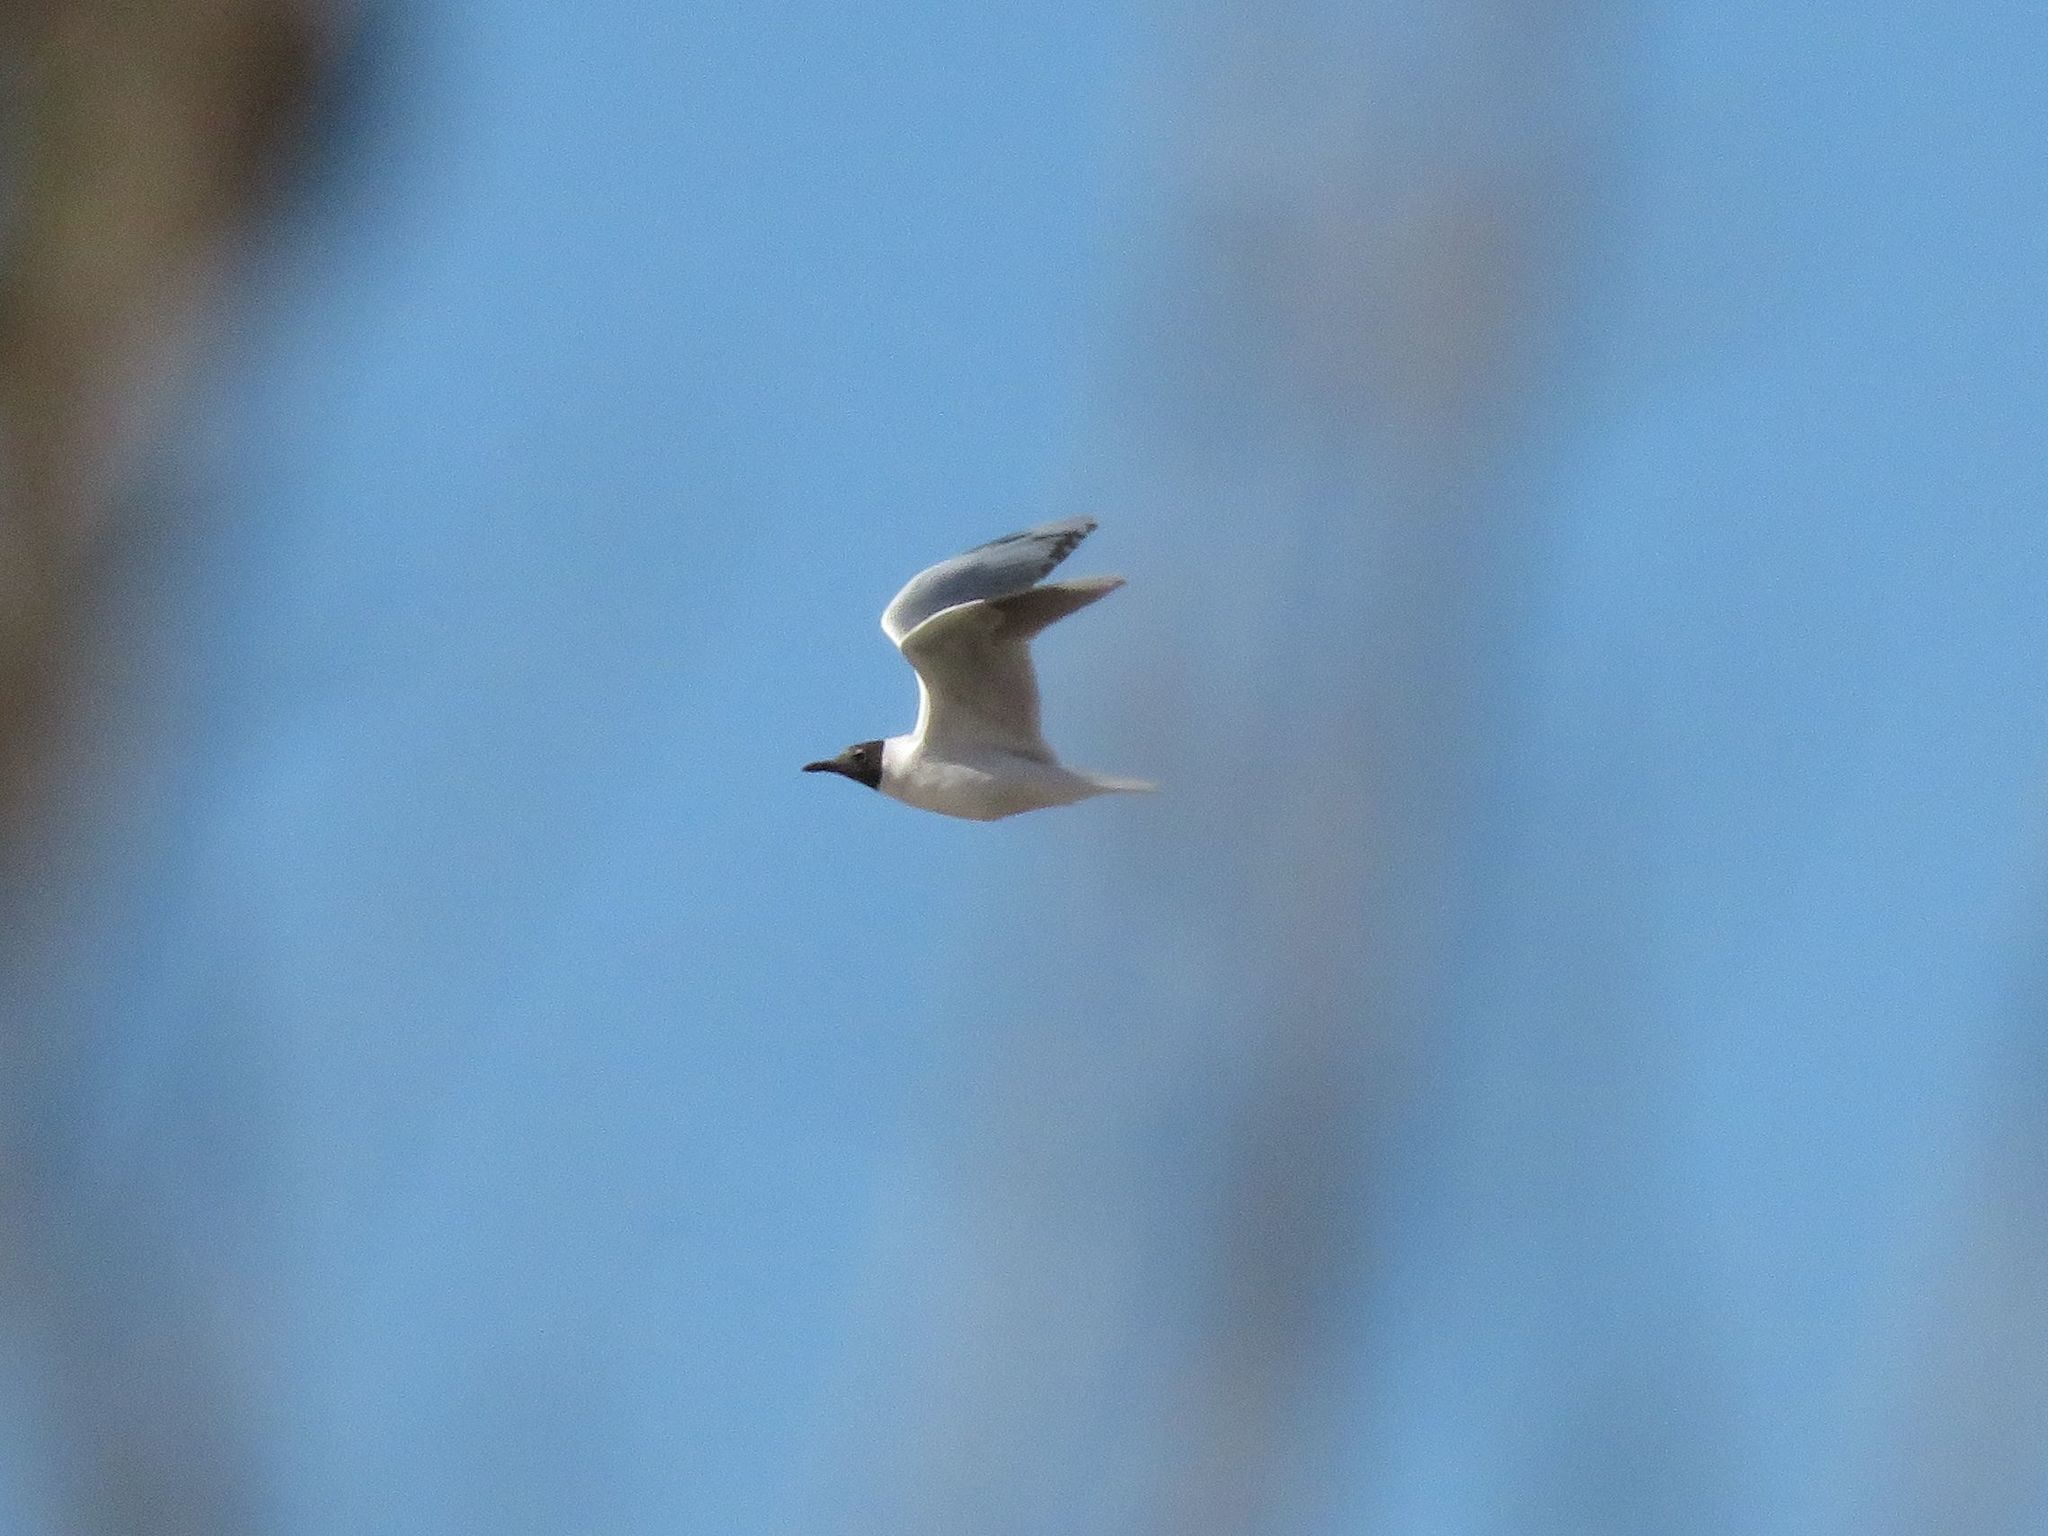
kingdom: Animalia
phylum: Chordata
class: Aves
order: Charadriiformes
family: Laridae
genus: Chroicocephalus
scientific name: Chroicocephalus maculipennis
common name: Brown-hooded gull
